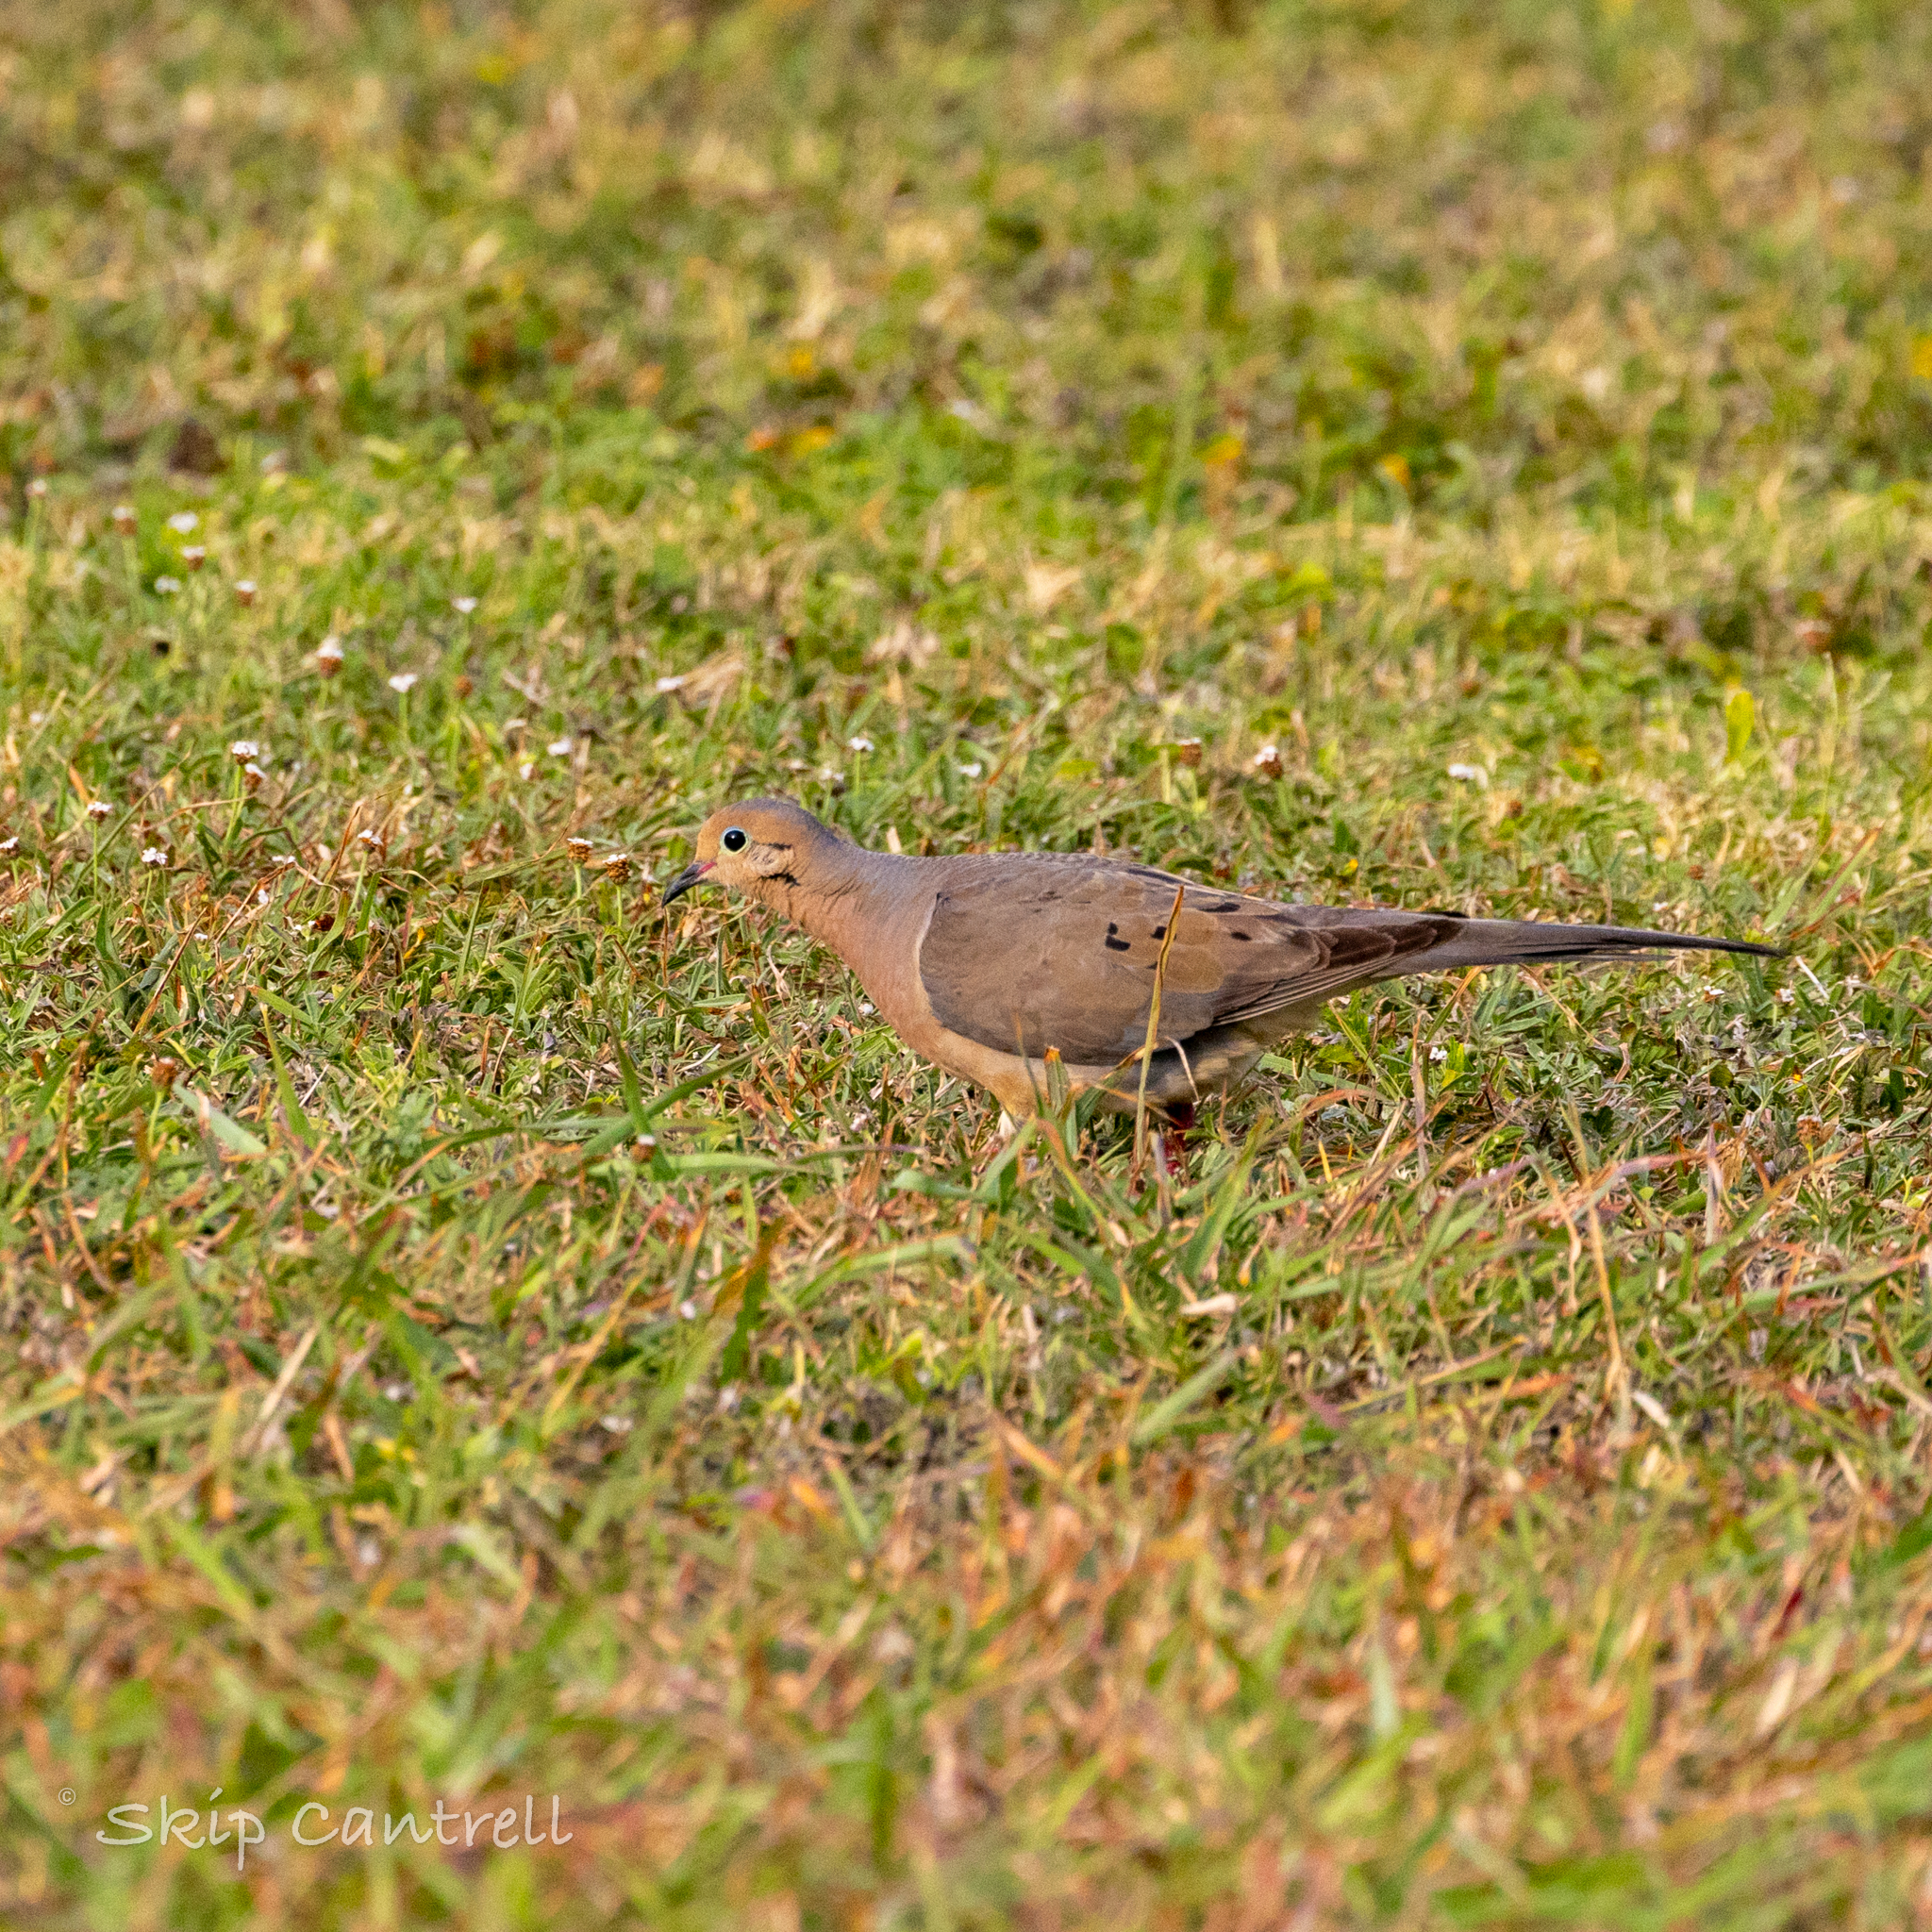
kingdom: Animalia
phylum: Chordata
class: Aves
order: Columbiformes
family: Columbidae
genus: Zenaida
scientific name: Zenaida macroura
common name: Mourning dove
